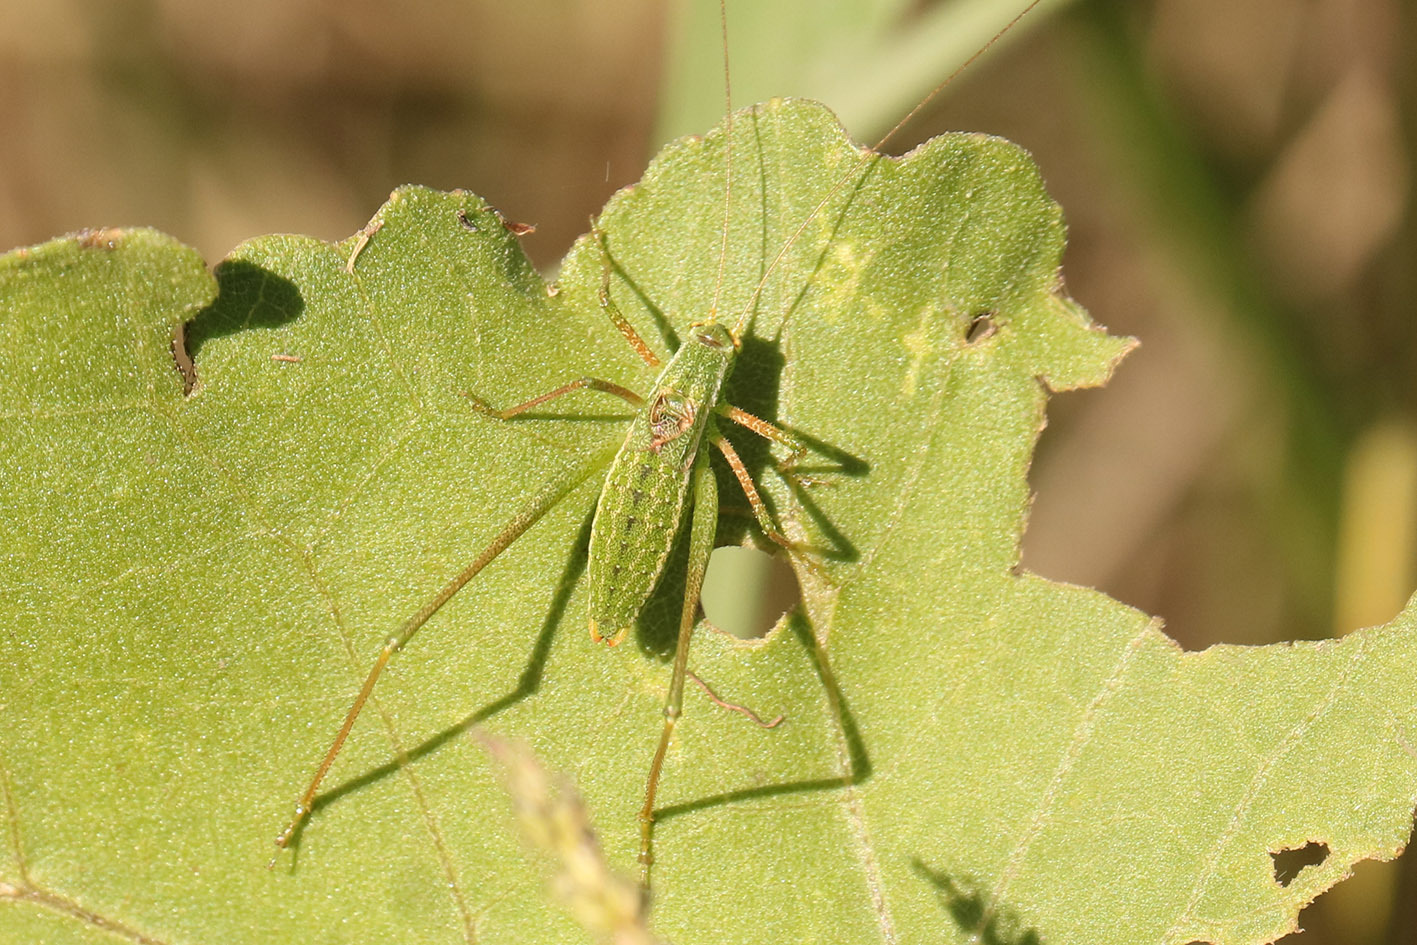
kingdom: Animalia
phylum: Arthropoda
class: Insecta
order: Orthoptera
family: Tettigoniidae
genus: Anisophya
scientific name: Anisophya punctinervis
